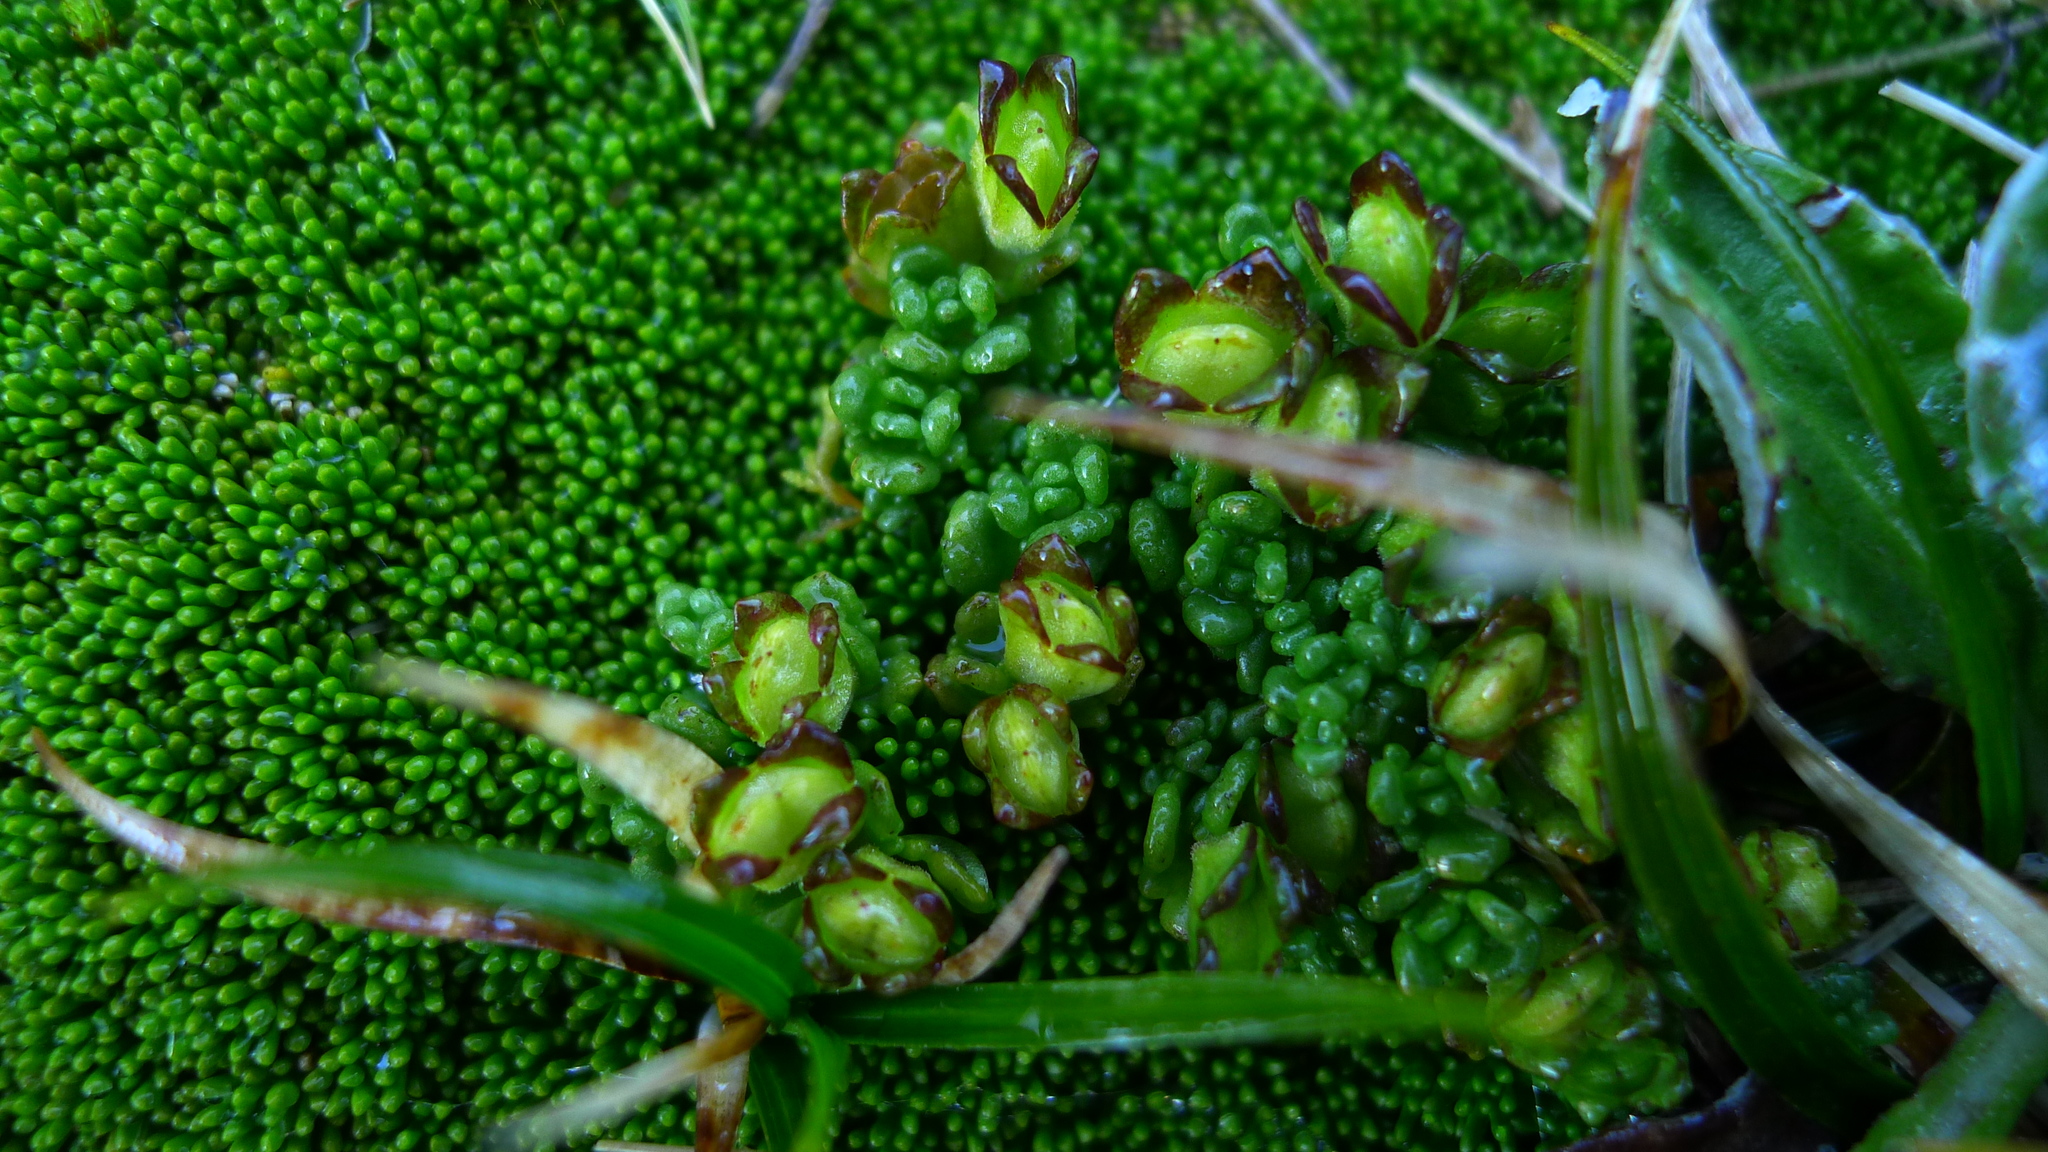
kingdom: Plantae
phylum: Tracheophyta
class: Magnoliopsida
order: Lamiales
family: Orobanchaceae
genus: Euphrasia
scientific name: Euphrasia revoluta
